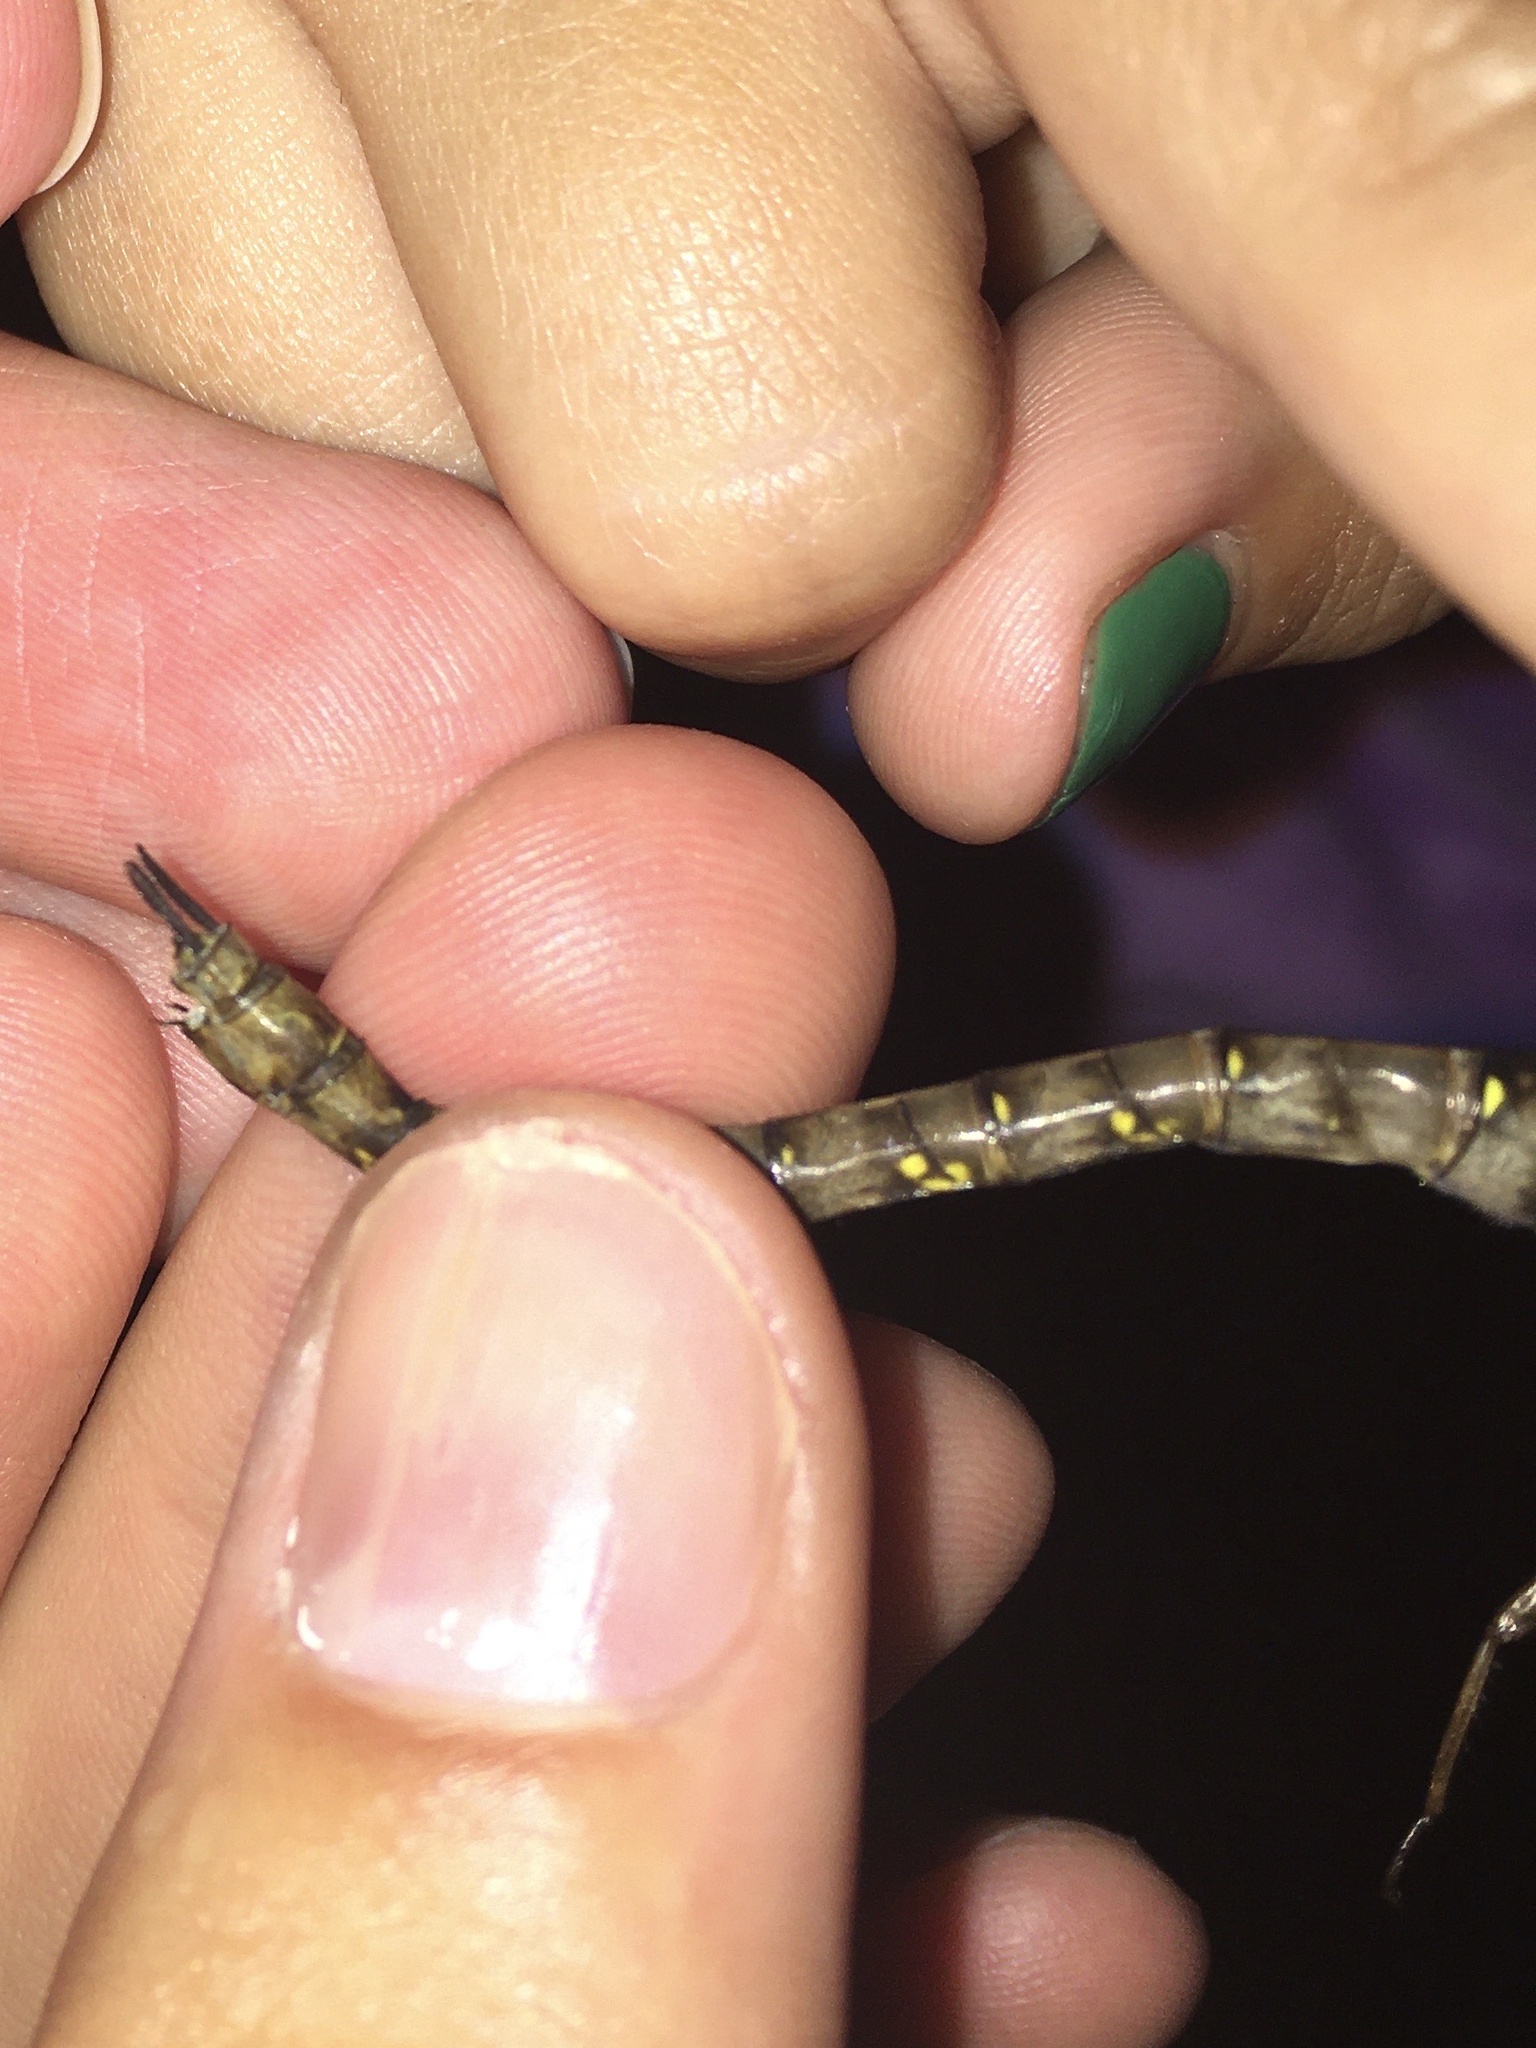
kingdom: Animalia
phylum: Arthropoda
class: Insecta
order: Odonata
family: Aeshnidae
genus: Boyeria
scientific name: Boyeria vinosa
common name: Fawn darner
